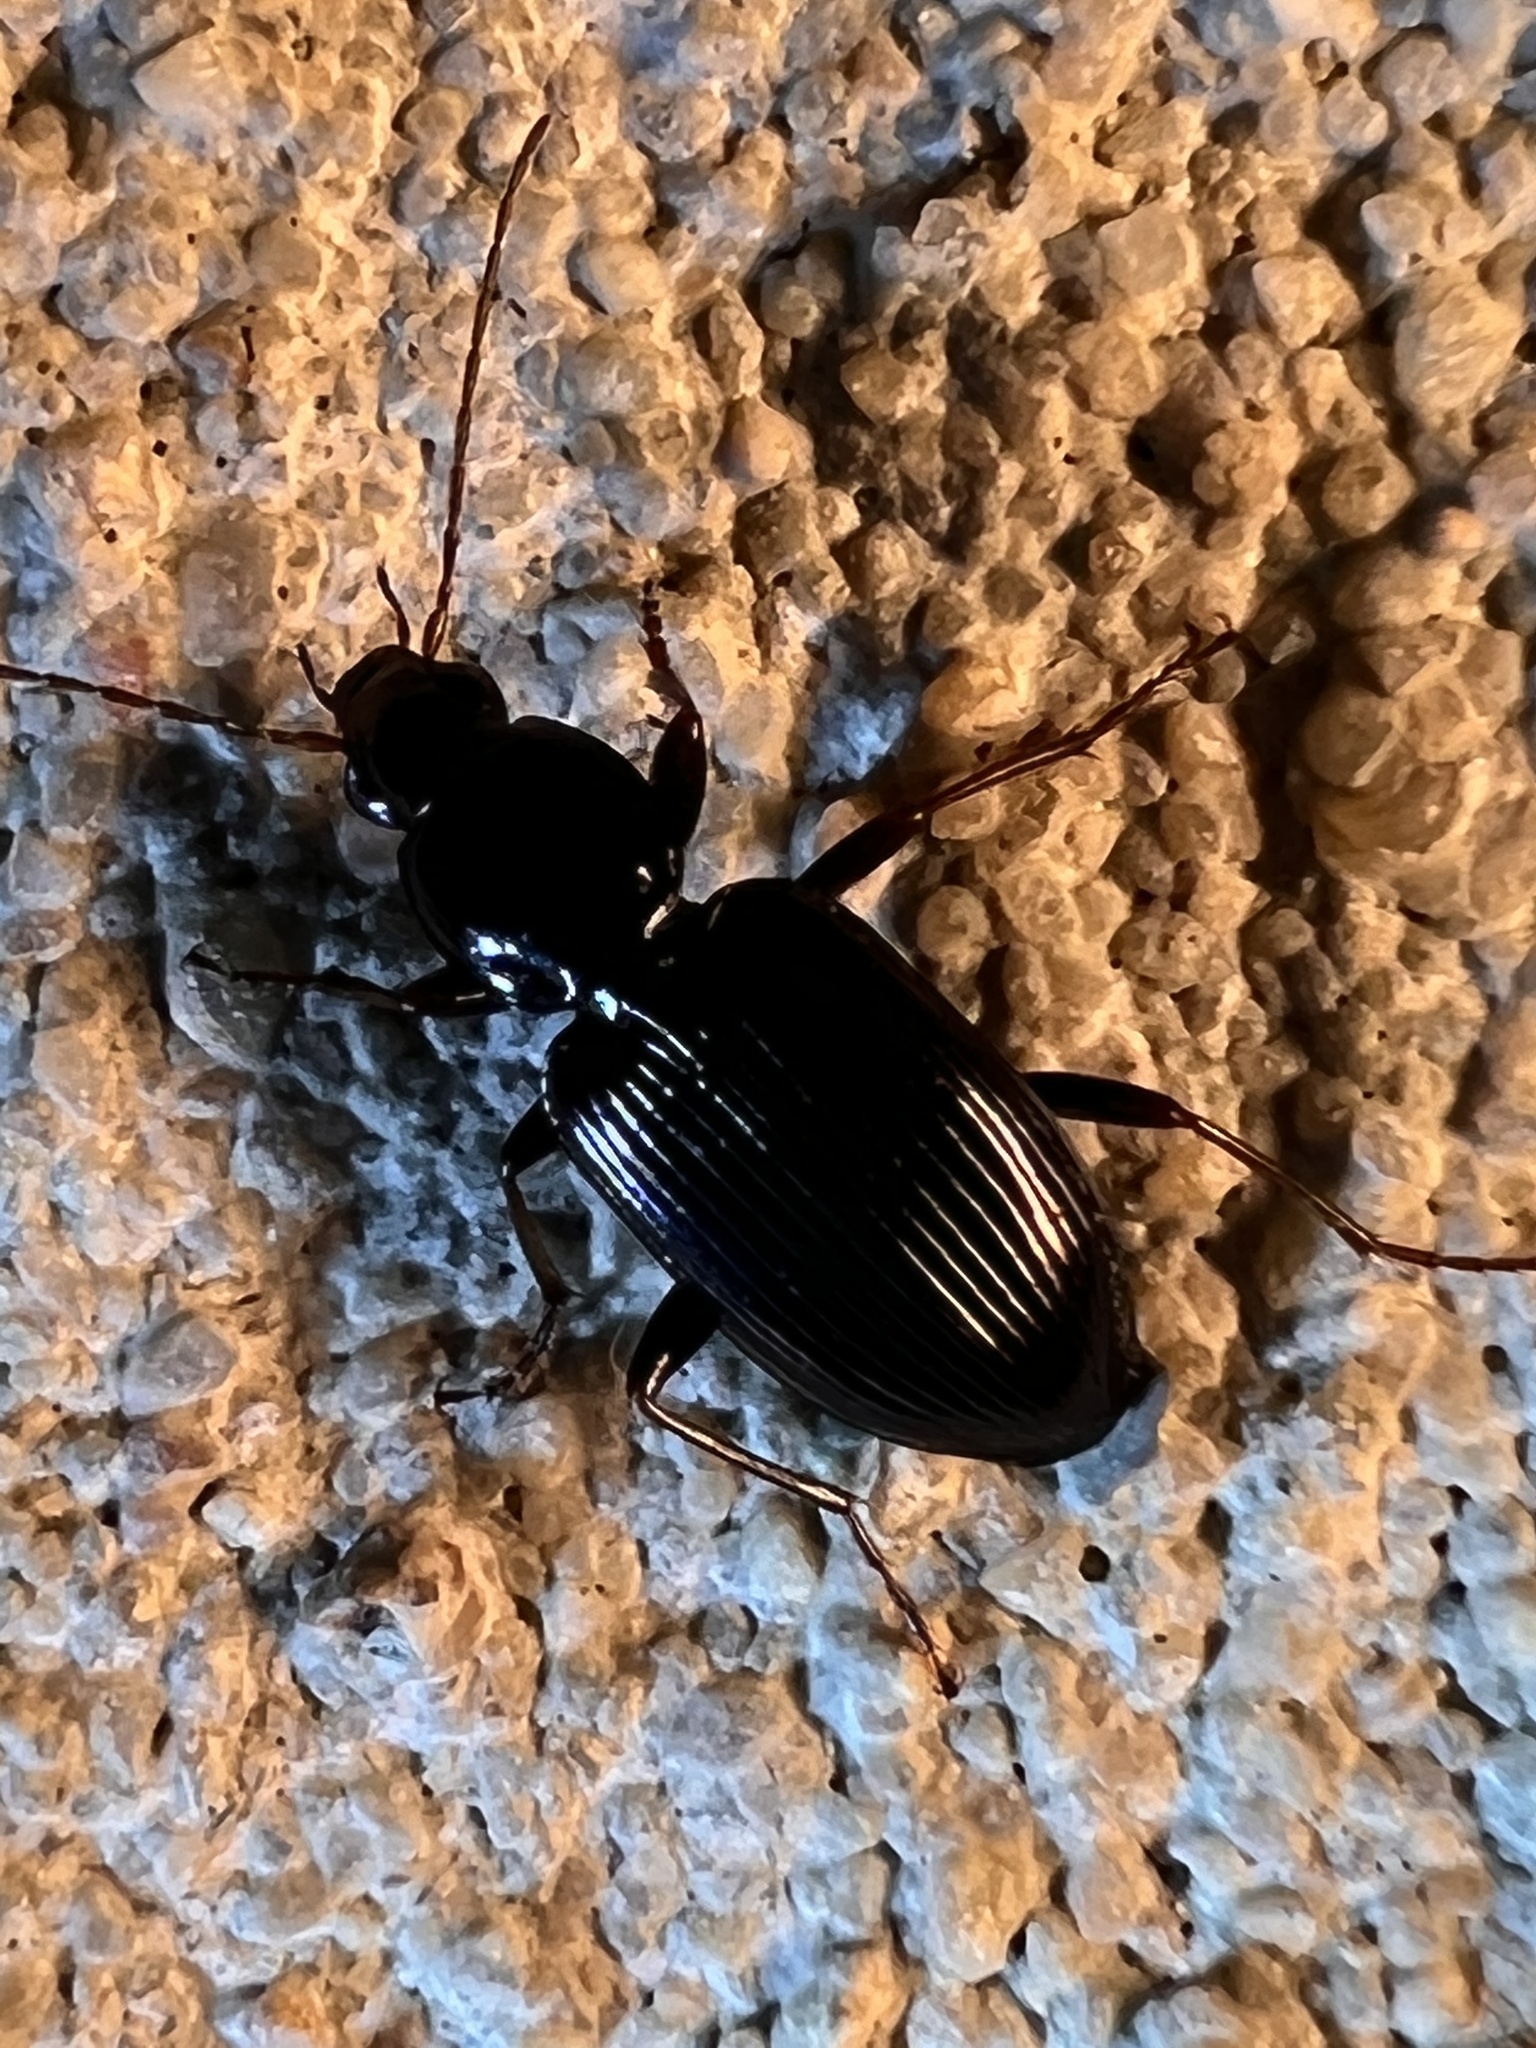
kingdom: Animalia
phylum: Arthropoda
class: Insecta
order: Coleoptera
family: Carabidae
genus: Agonum
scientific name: Agonum punctiforme
